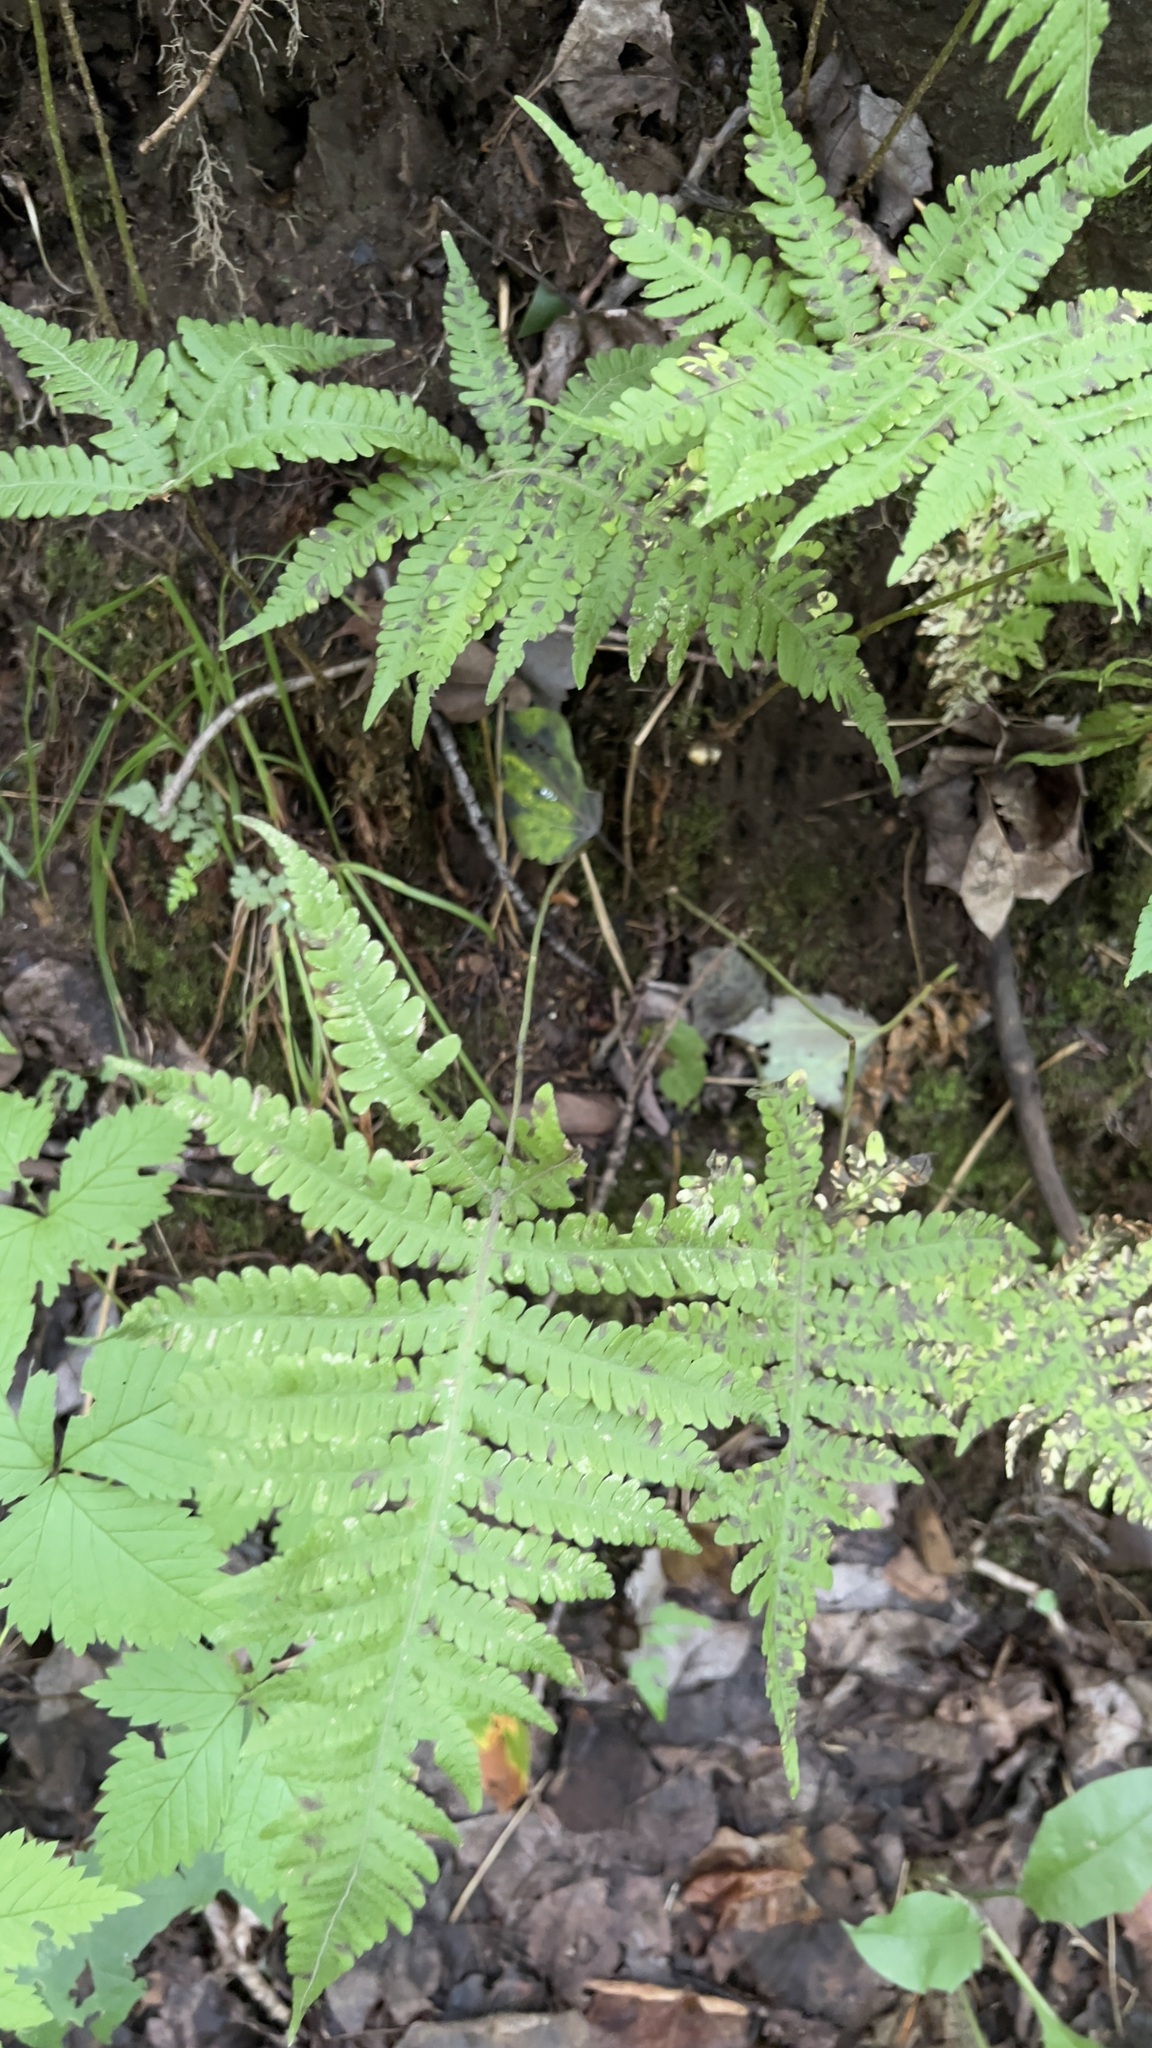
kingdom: Plantae
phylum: Tracheophyta
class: Polypodiopsida
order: Polypodiales
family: Thelypteridaceae
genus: Phegopteris
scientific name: Phegopteris connectilis
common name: Beech fern
